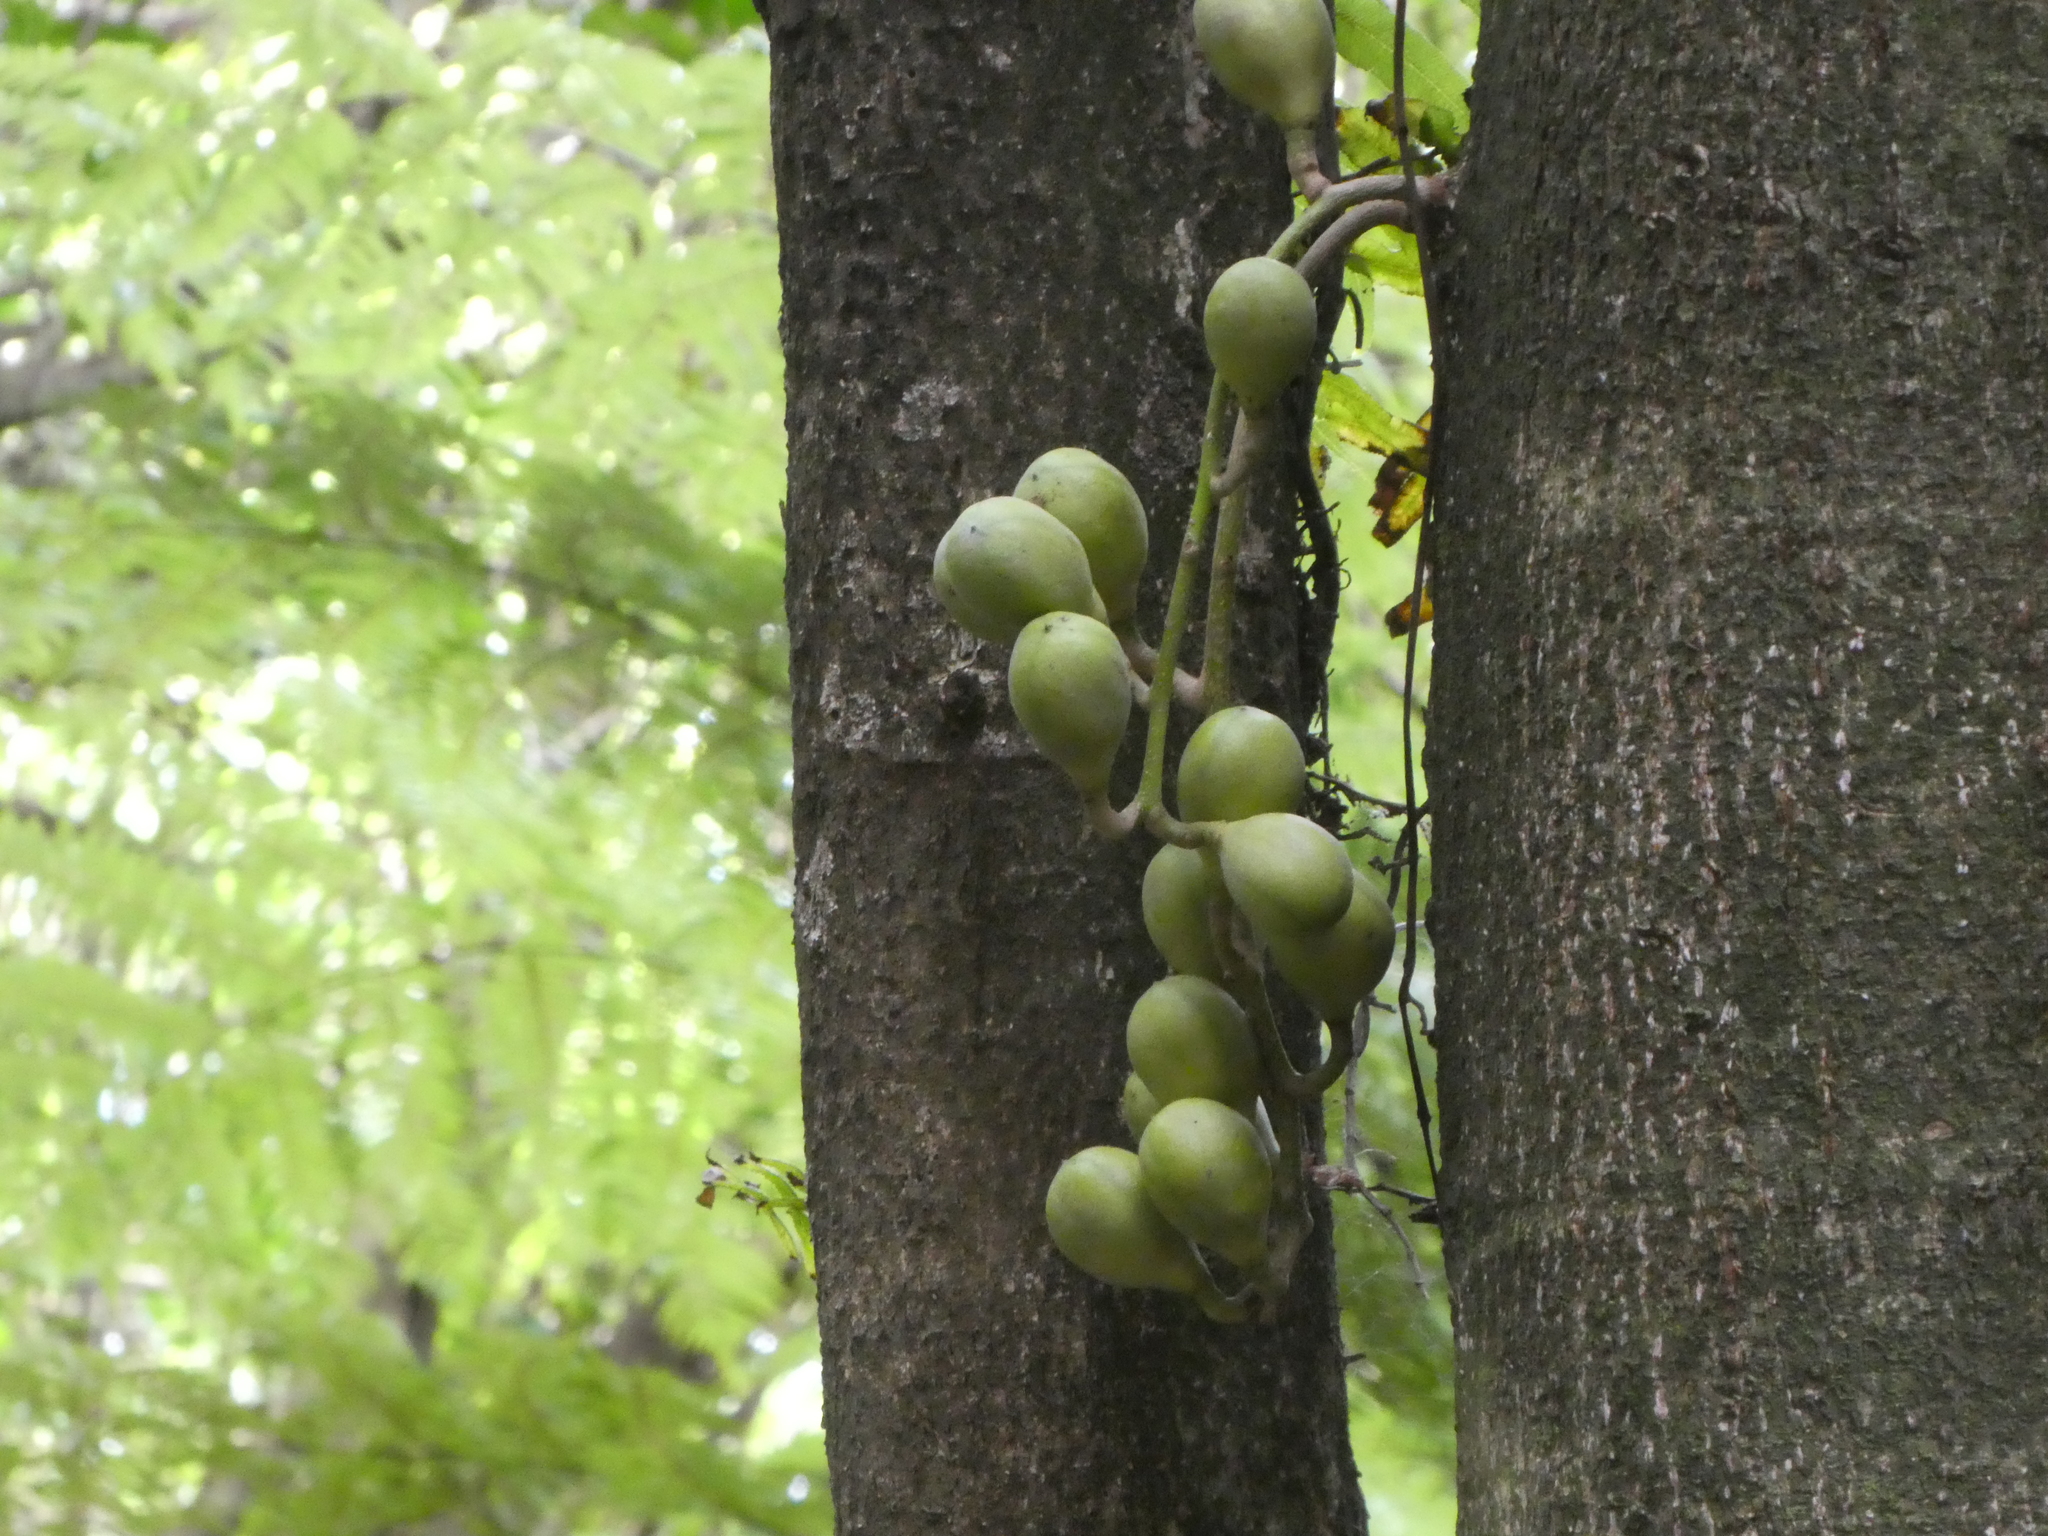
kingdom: Plantae
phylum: Tracheophyta
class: Magnoliopsida
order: Sapindales
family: Meliaceae
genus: Didymocheton
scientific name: Didymocheton spectabilis
